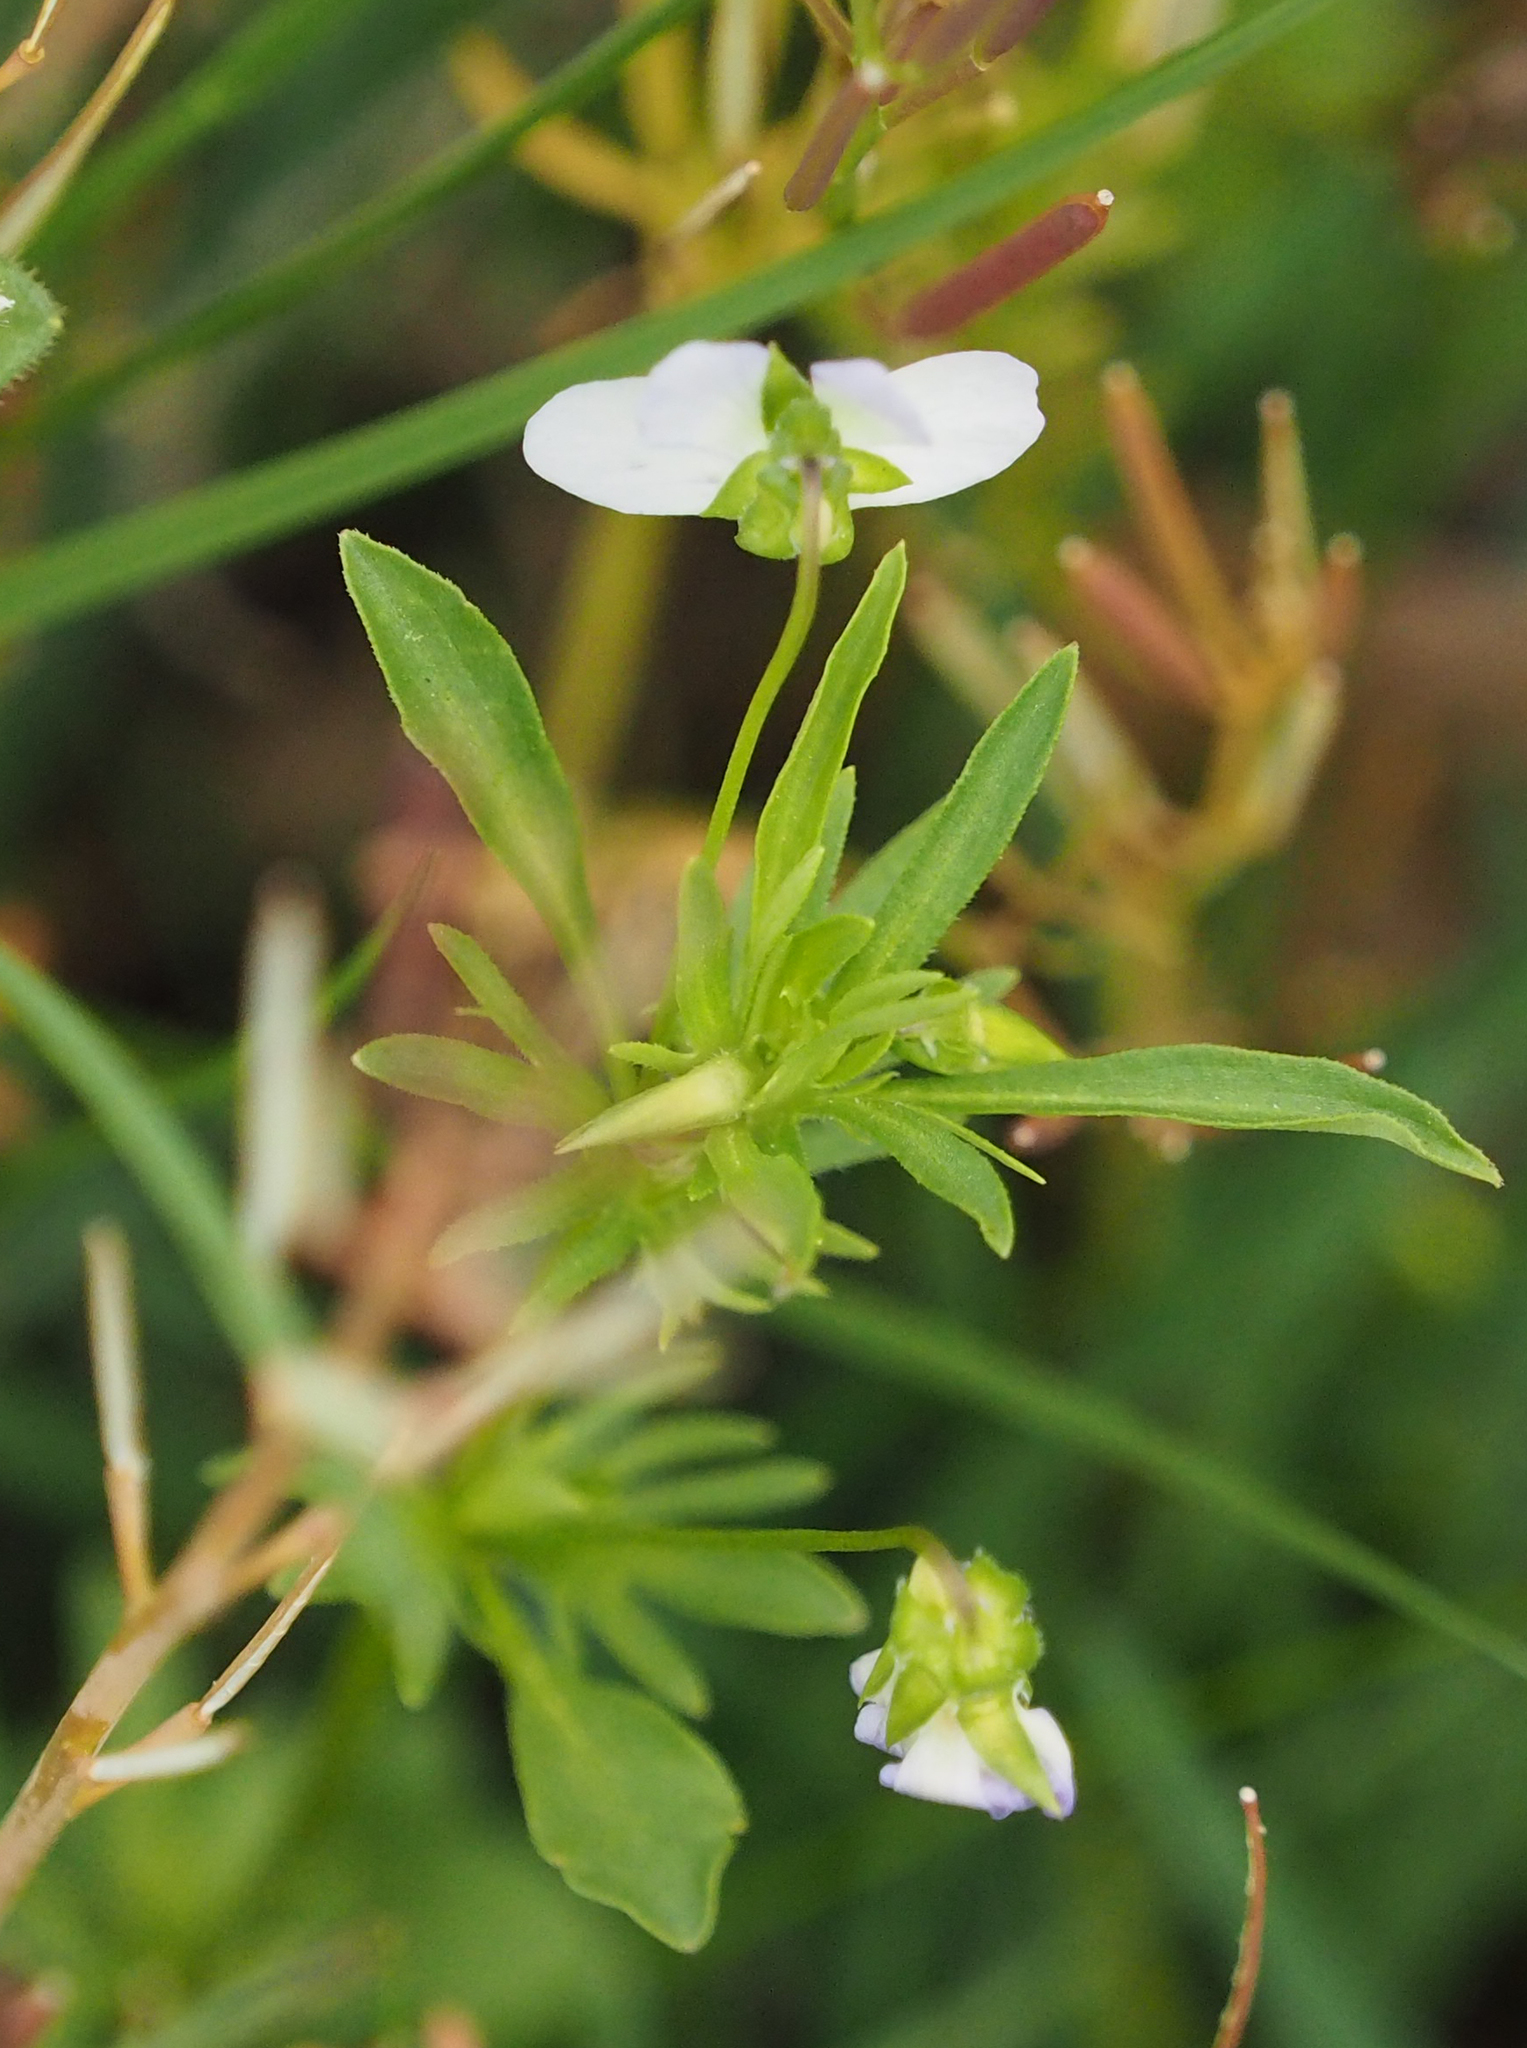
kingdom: Plantae
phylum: Tracheophyta
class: Magnoliopsida
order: Malpighiales
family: Violaceae
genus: Viola
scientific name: Viola rafinesquei
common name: American field pansy
